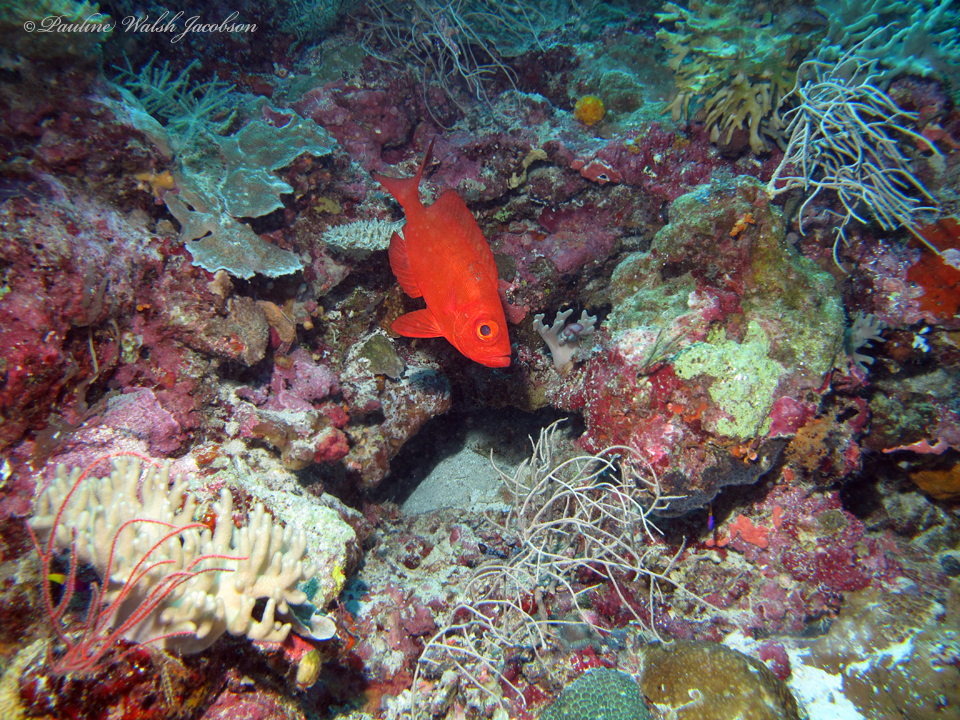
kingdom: Animalia
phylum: Chordata
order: Perciformes
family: Priacanthidae
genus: Priacanthus
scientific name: Priacanthus hamrur
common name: Moontail bullseye
